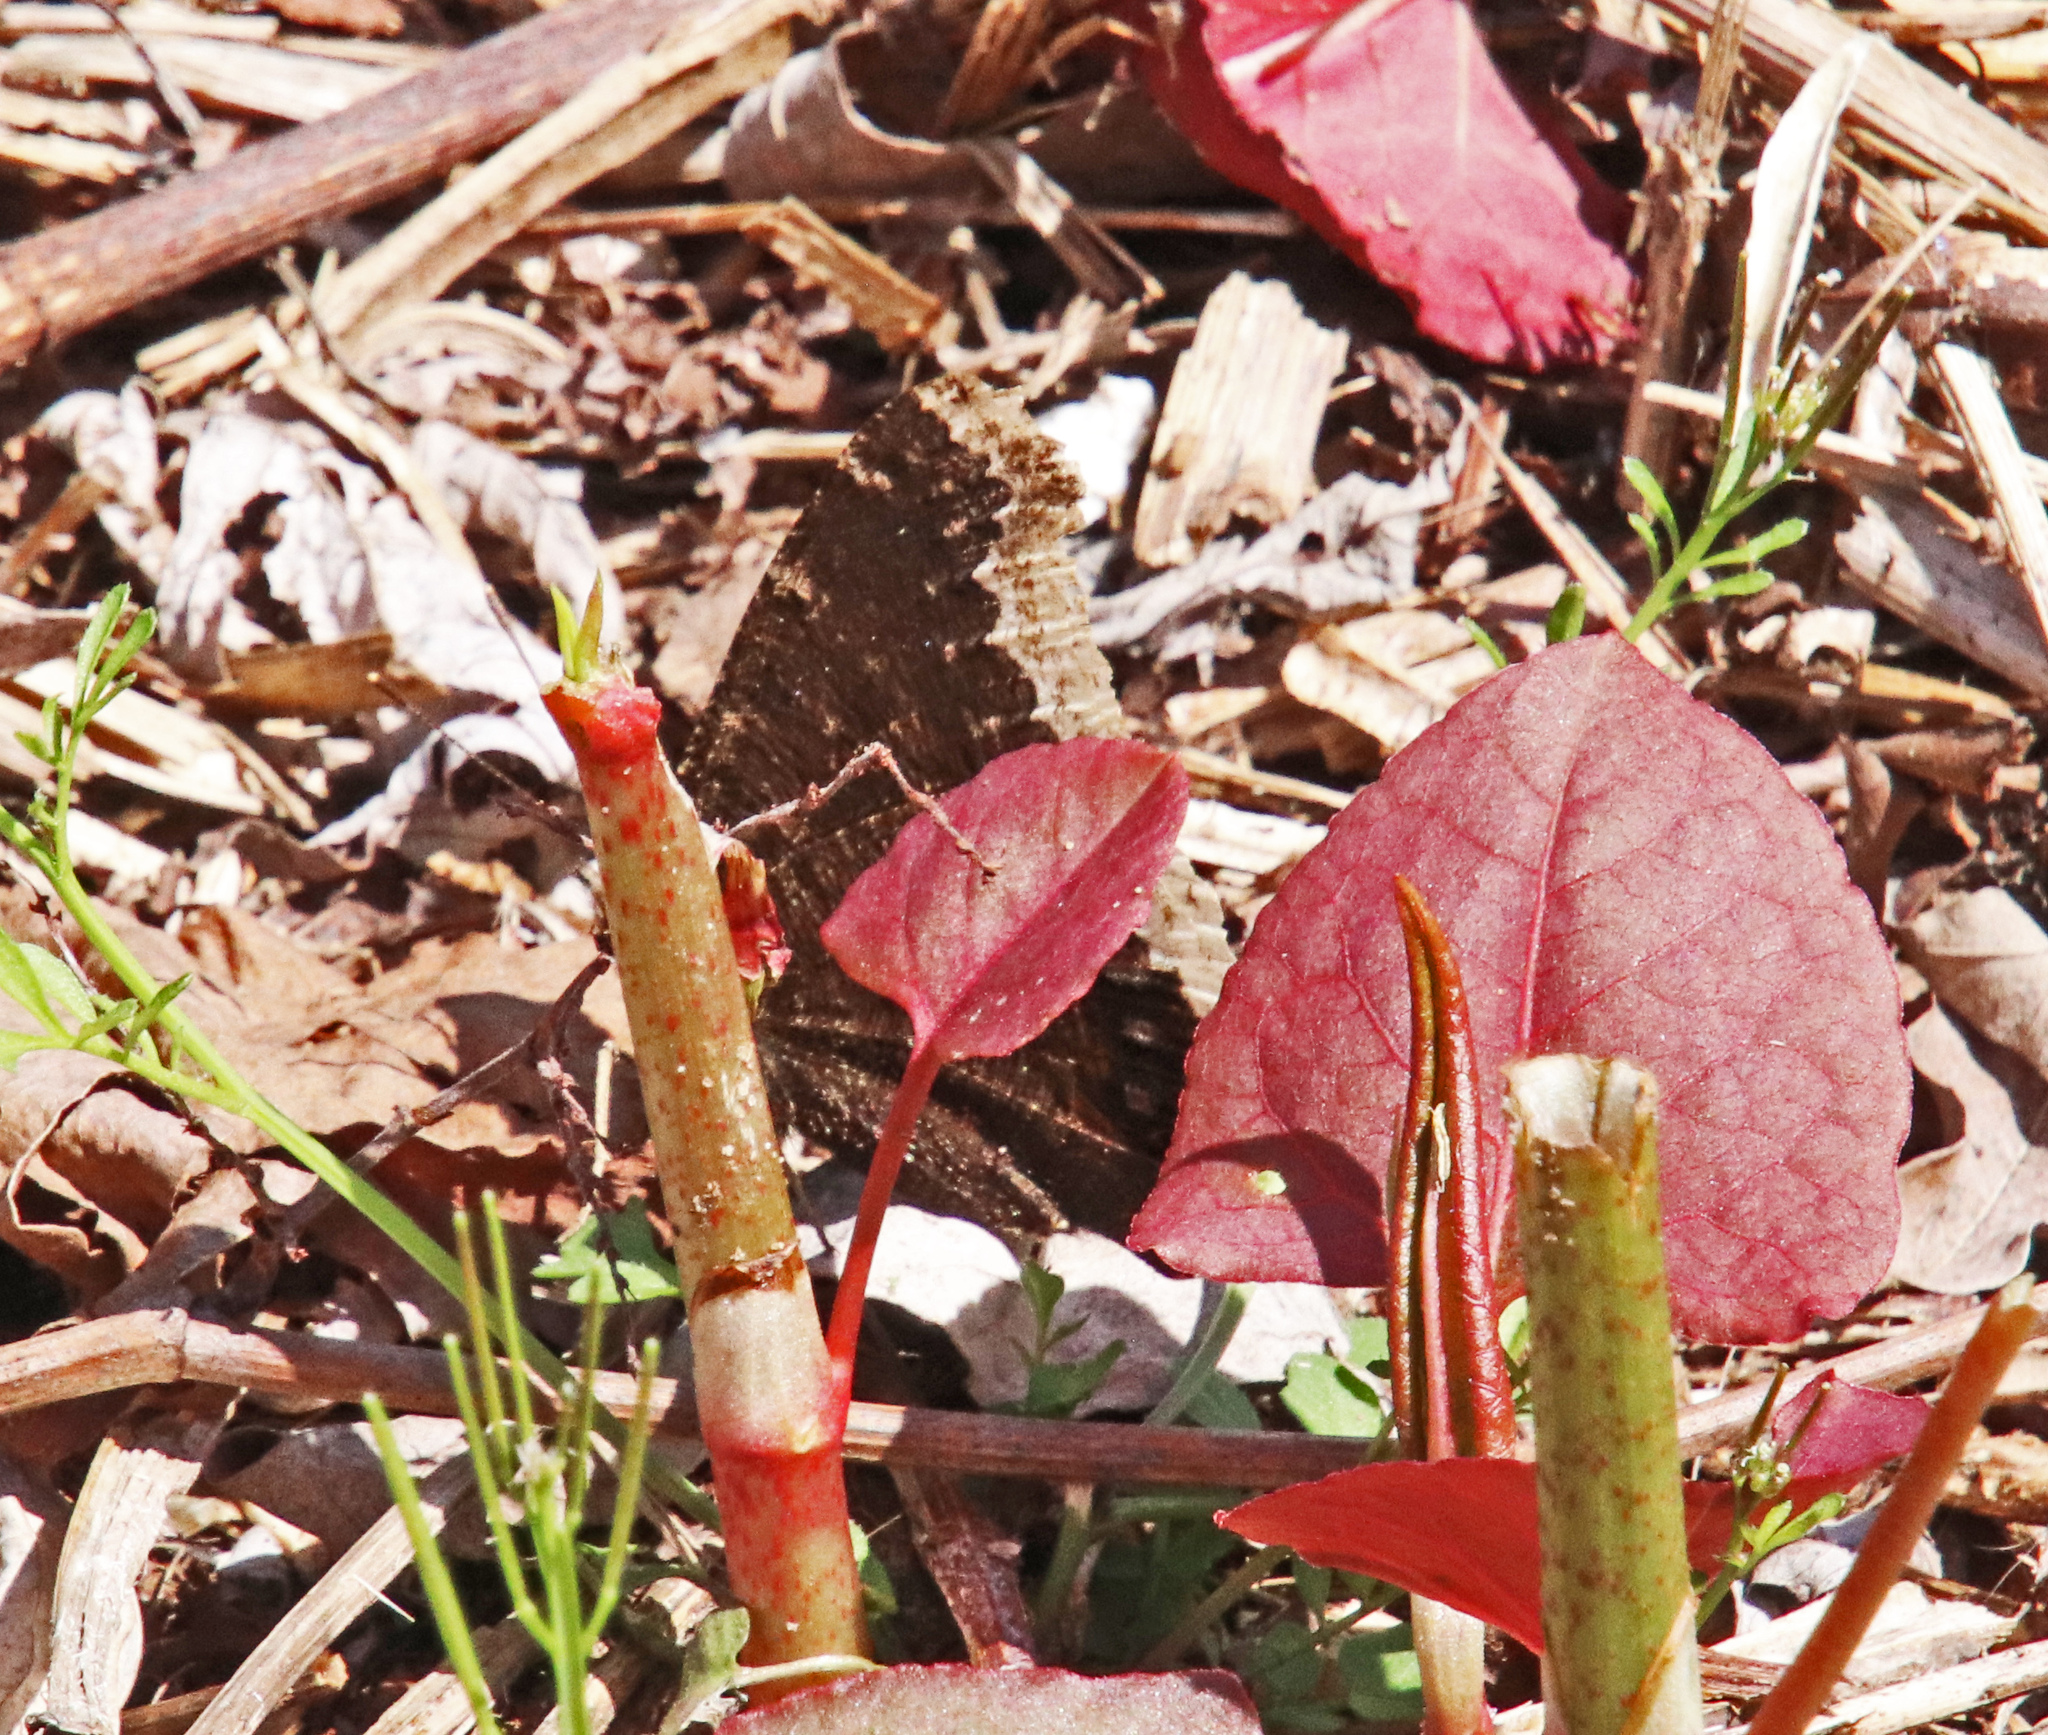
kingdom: Animalia
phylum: Arthropoda
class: Insecta
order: Lepidoptera
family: Nymphalidae
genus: Nymphalis
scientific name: Nymphalis antiopa
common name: Camberwell beauty
